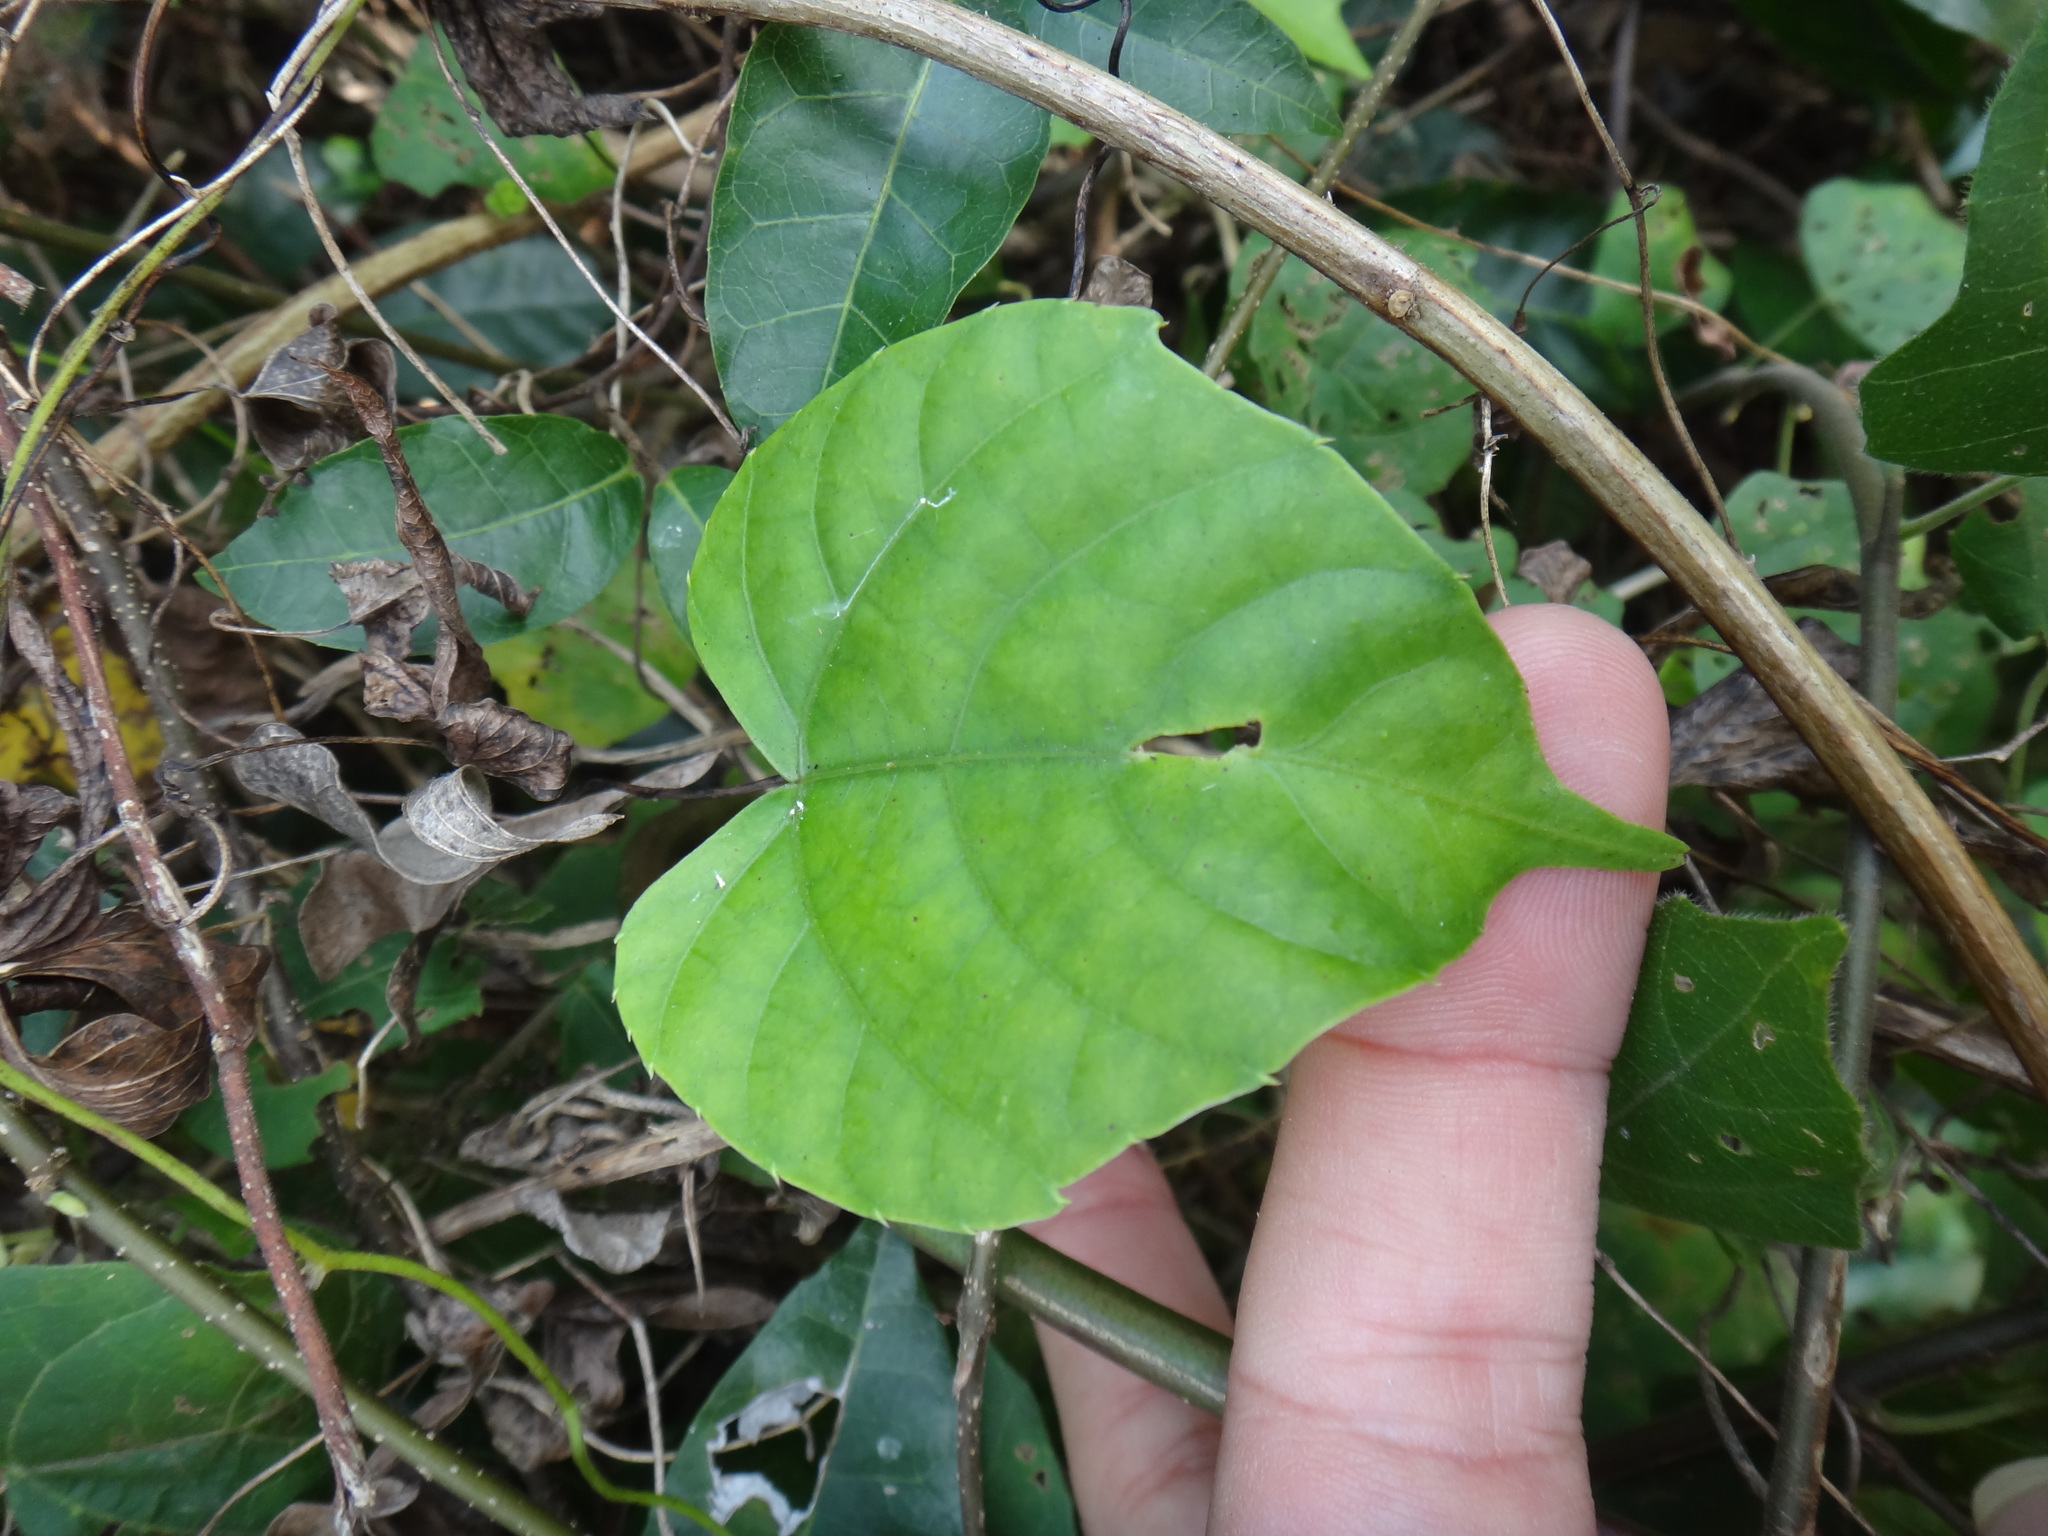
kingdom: Plantae
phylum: Tracheophyta
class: Magnoliopsida
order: Vitales
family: Vitaceae
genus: Cissus
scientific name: Cissus repens
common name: Cissus
